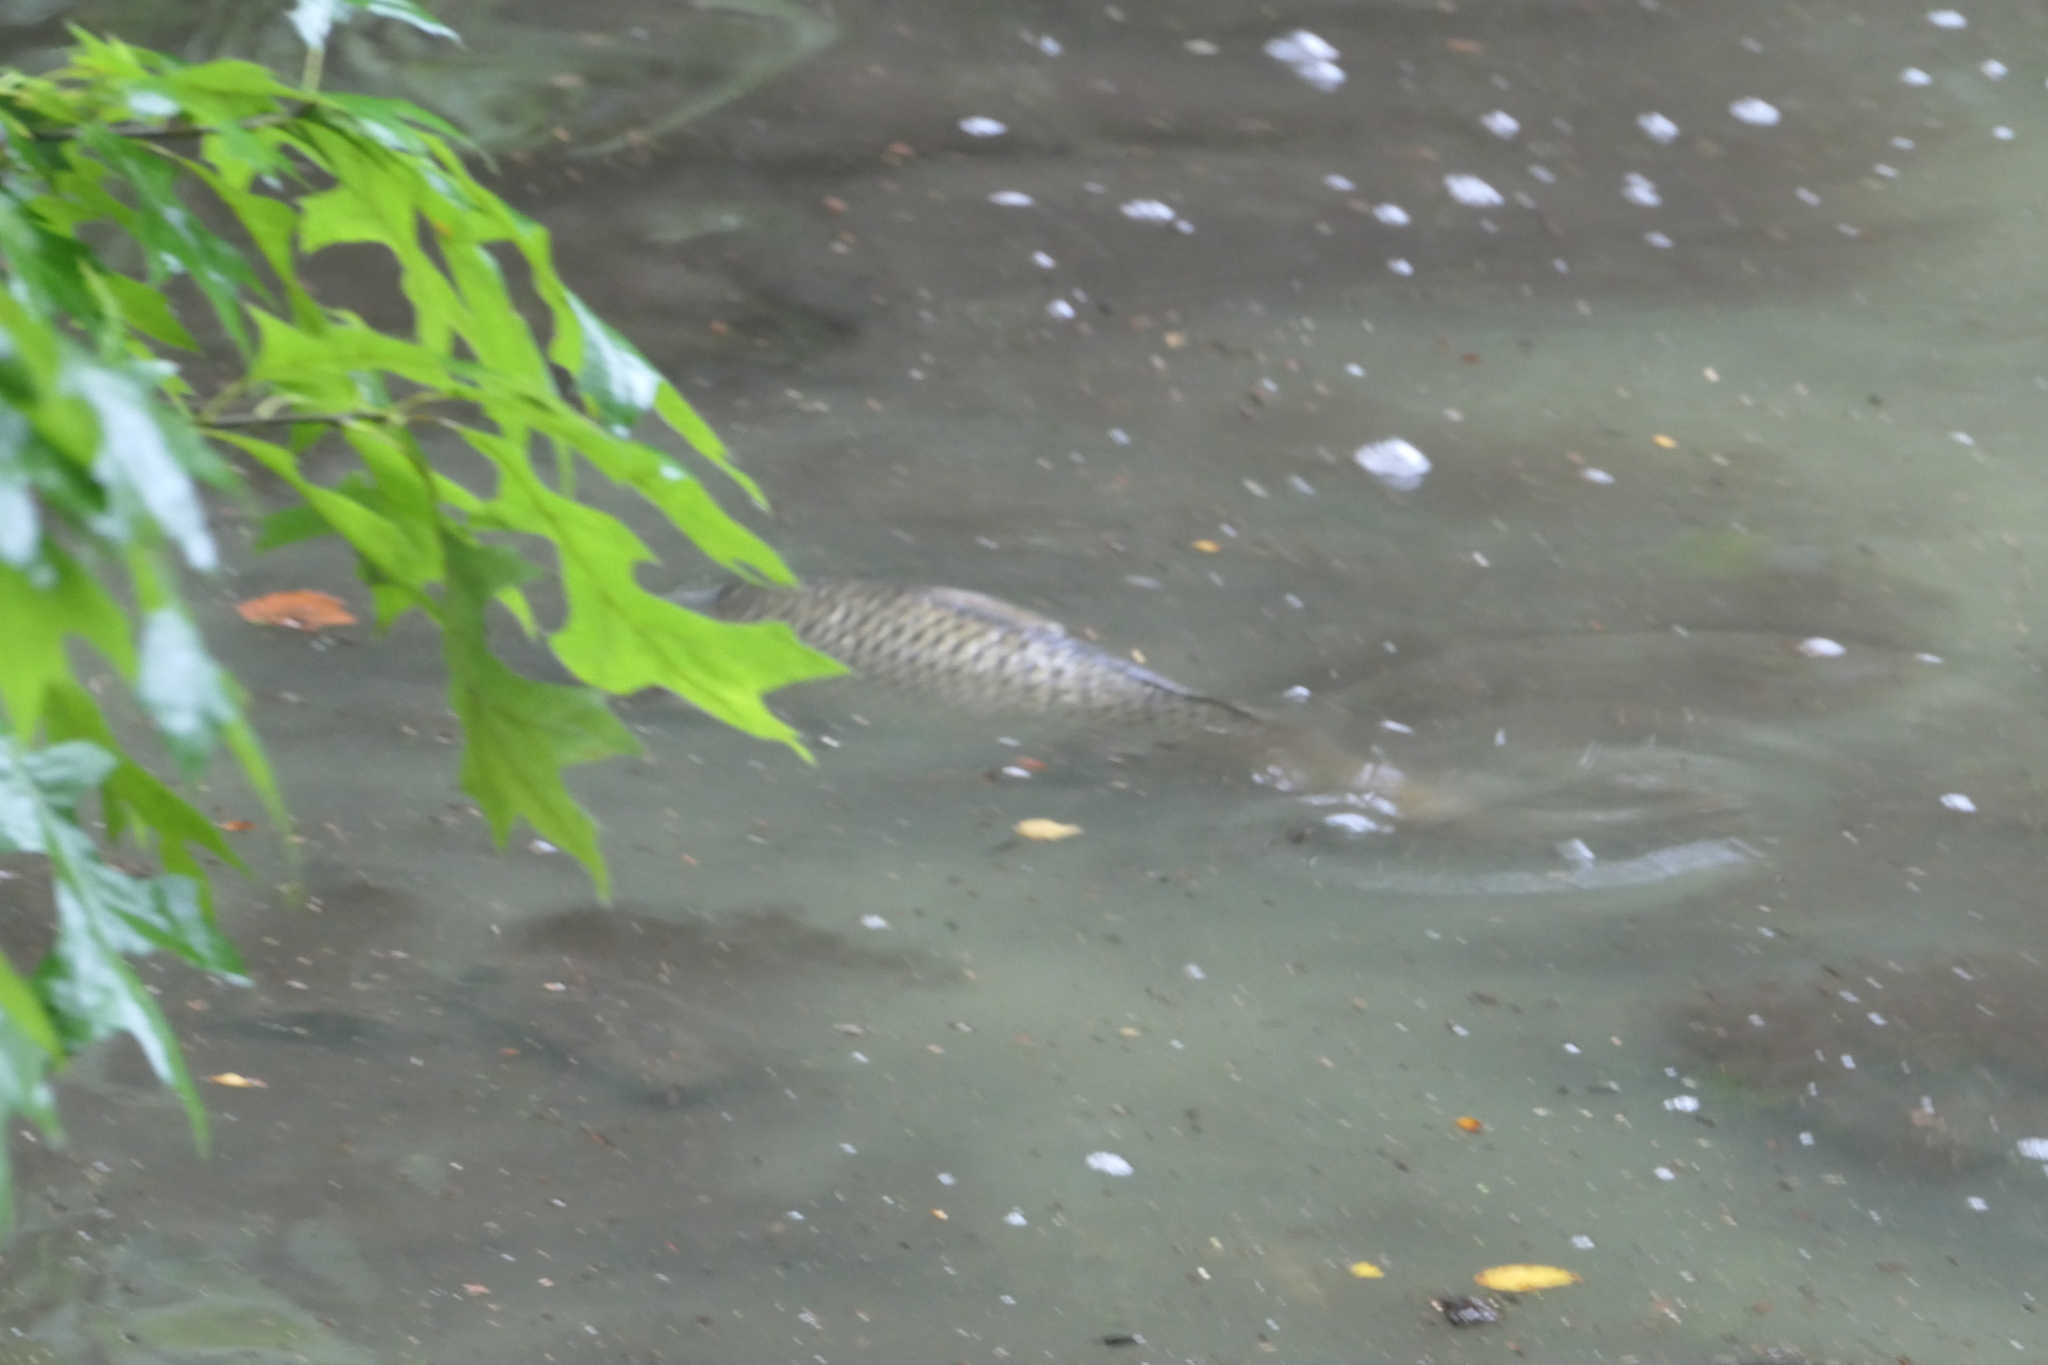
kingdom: Animalia
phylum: Chordata
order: Cypriniformes
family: Cyprinidae
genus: Cyprinus
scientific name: Cyprinus carpio
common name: Common carp
